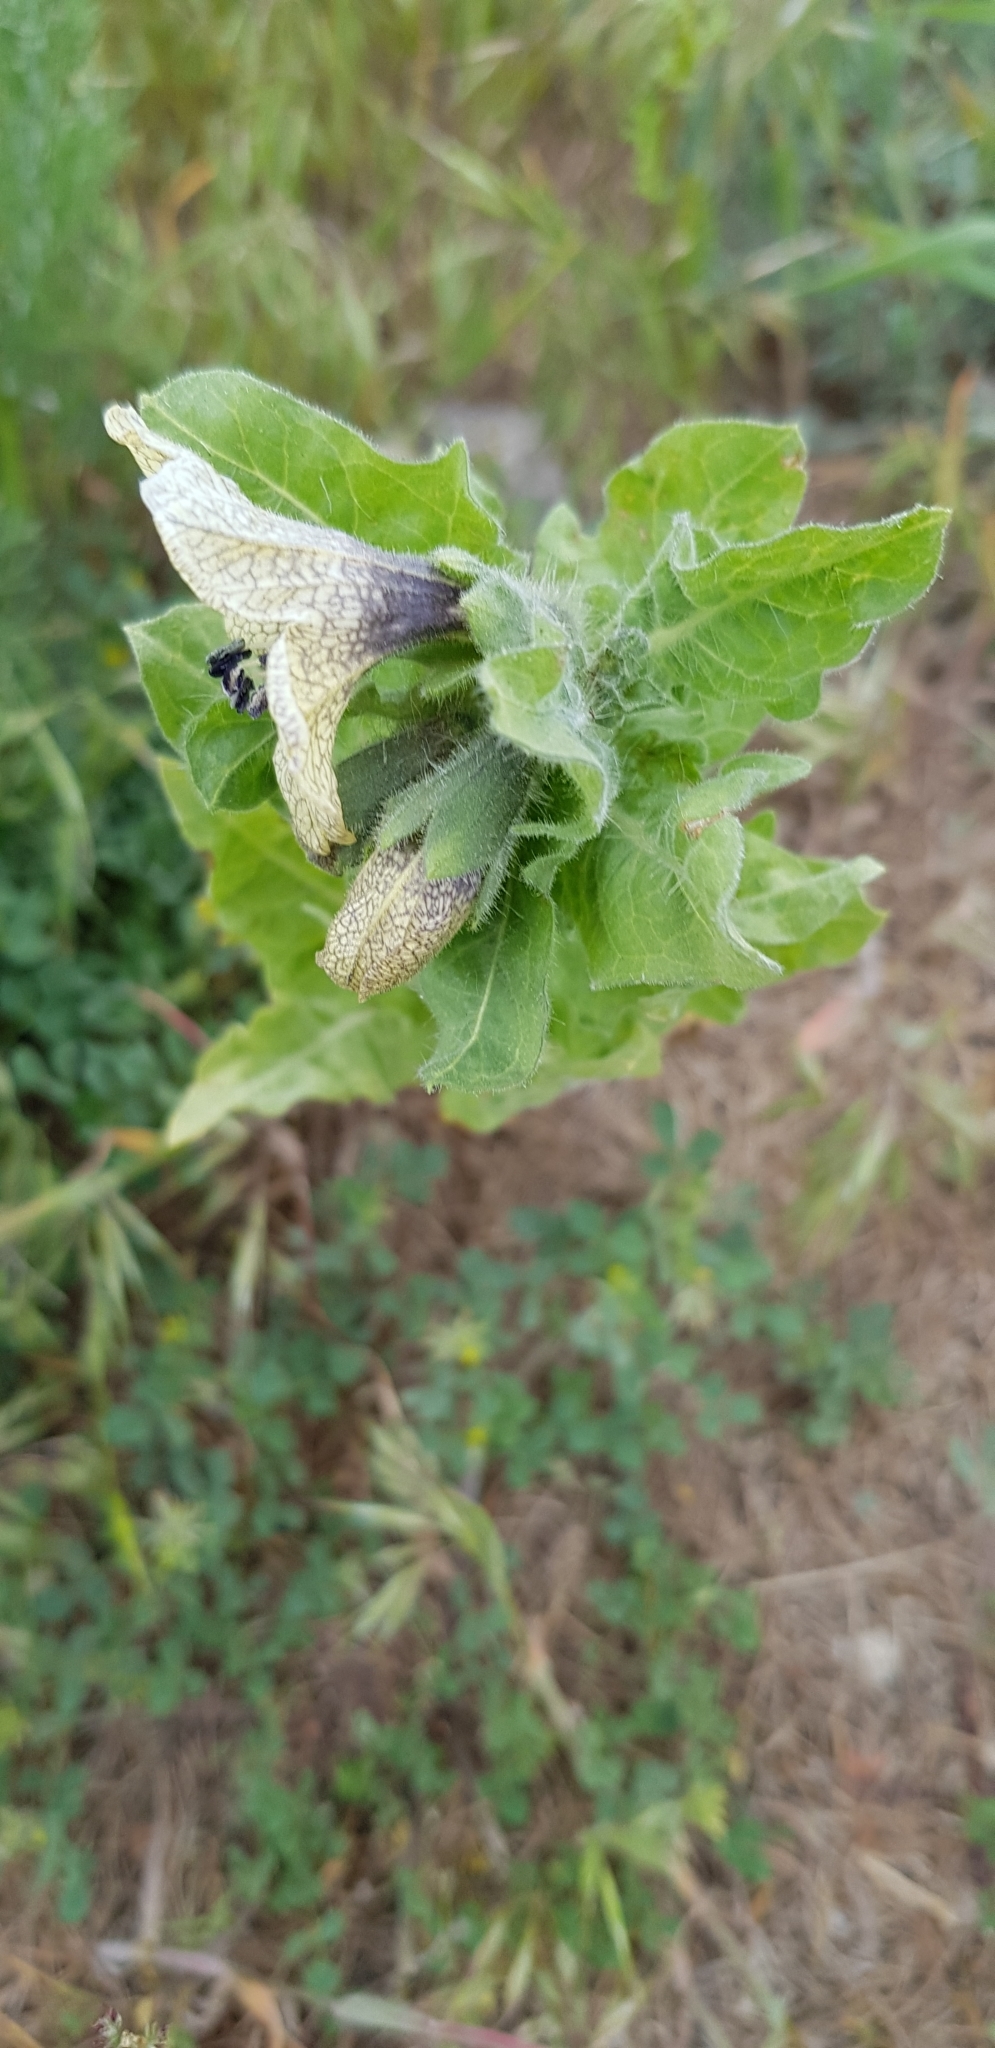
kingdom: Plantae
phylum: Tracheophyta
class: Magnoliopsida
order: Solanales
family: Solanaceae
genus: Hyoscyamus
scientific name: Hyoscyamus niger
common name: Henbane
